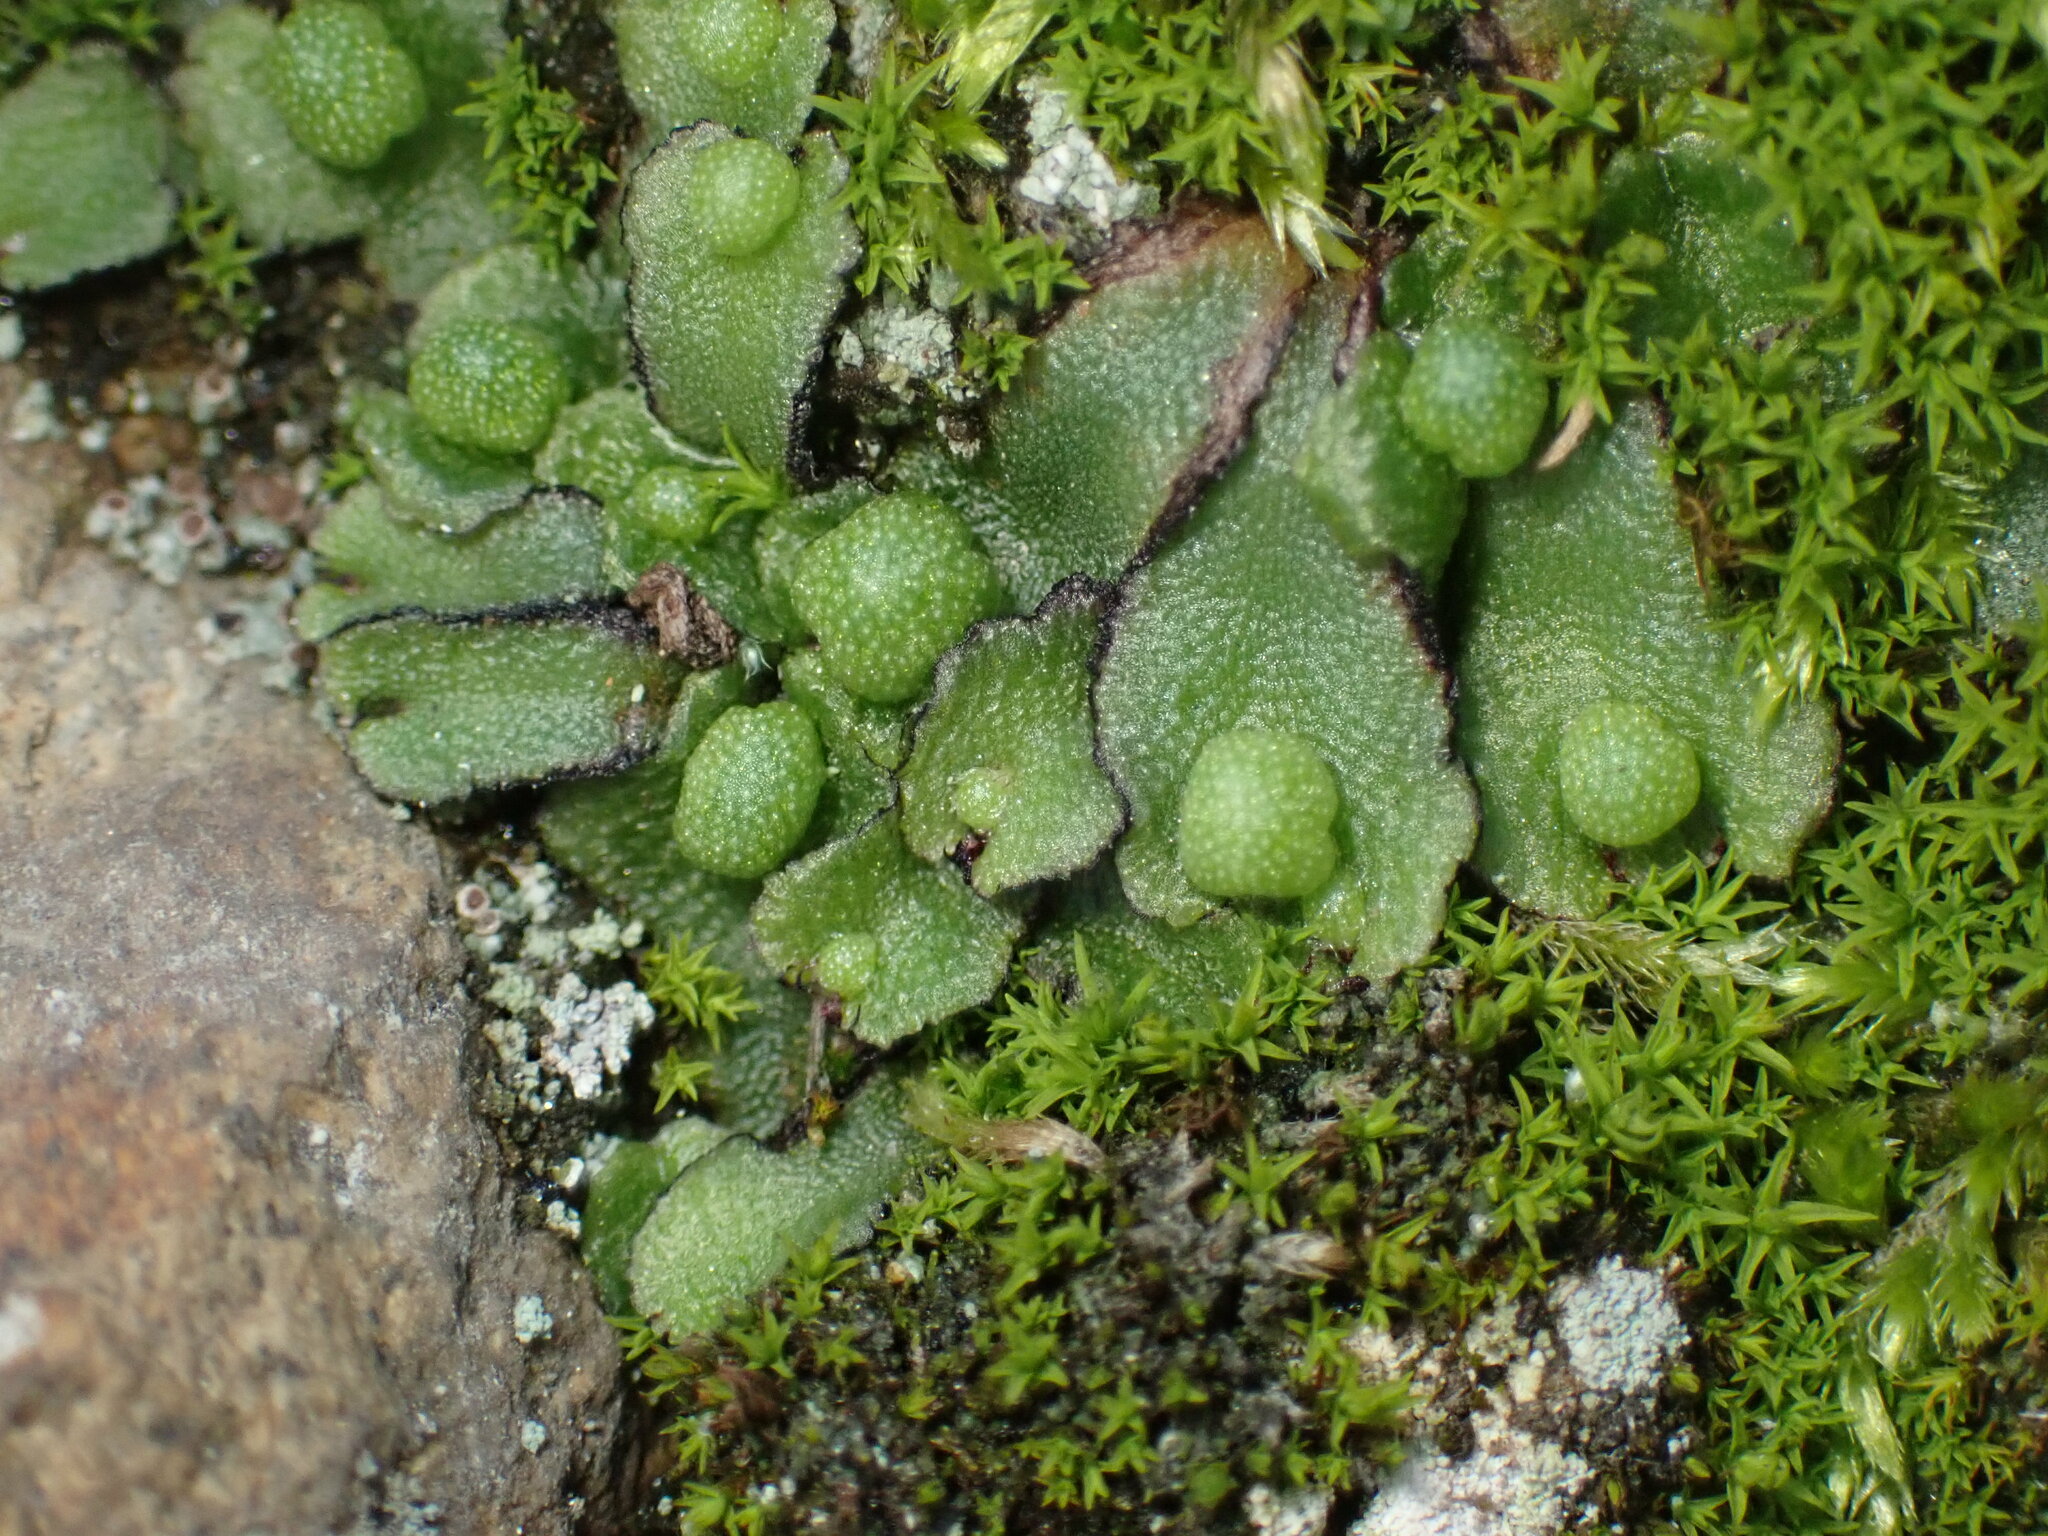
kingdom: Plantae
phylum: Marchantiophyta
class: Marchantiopsida
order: Marchantiales
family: Aytoniaceae
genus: Asterella
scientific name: Asterella californica
